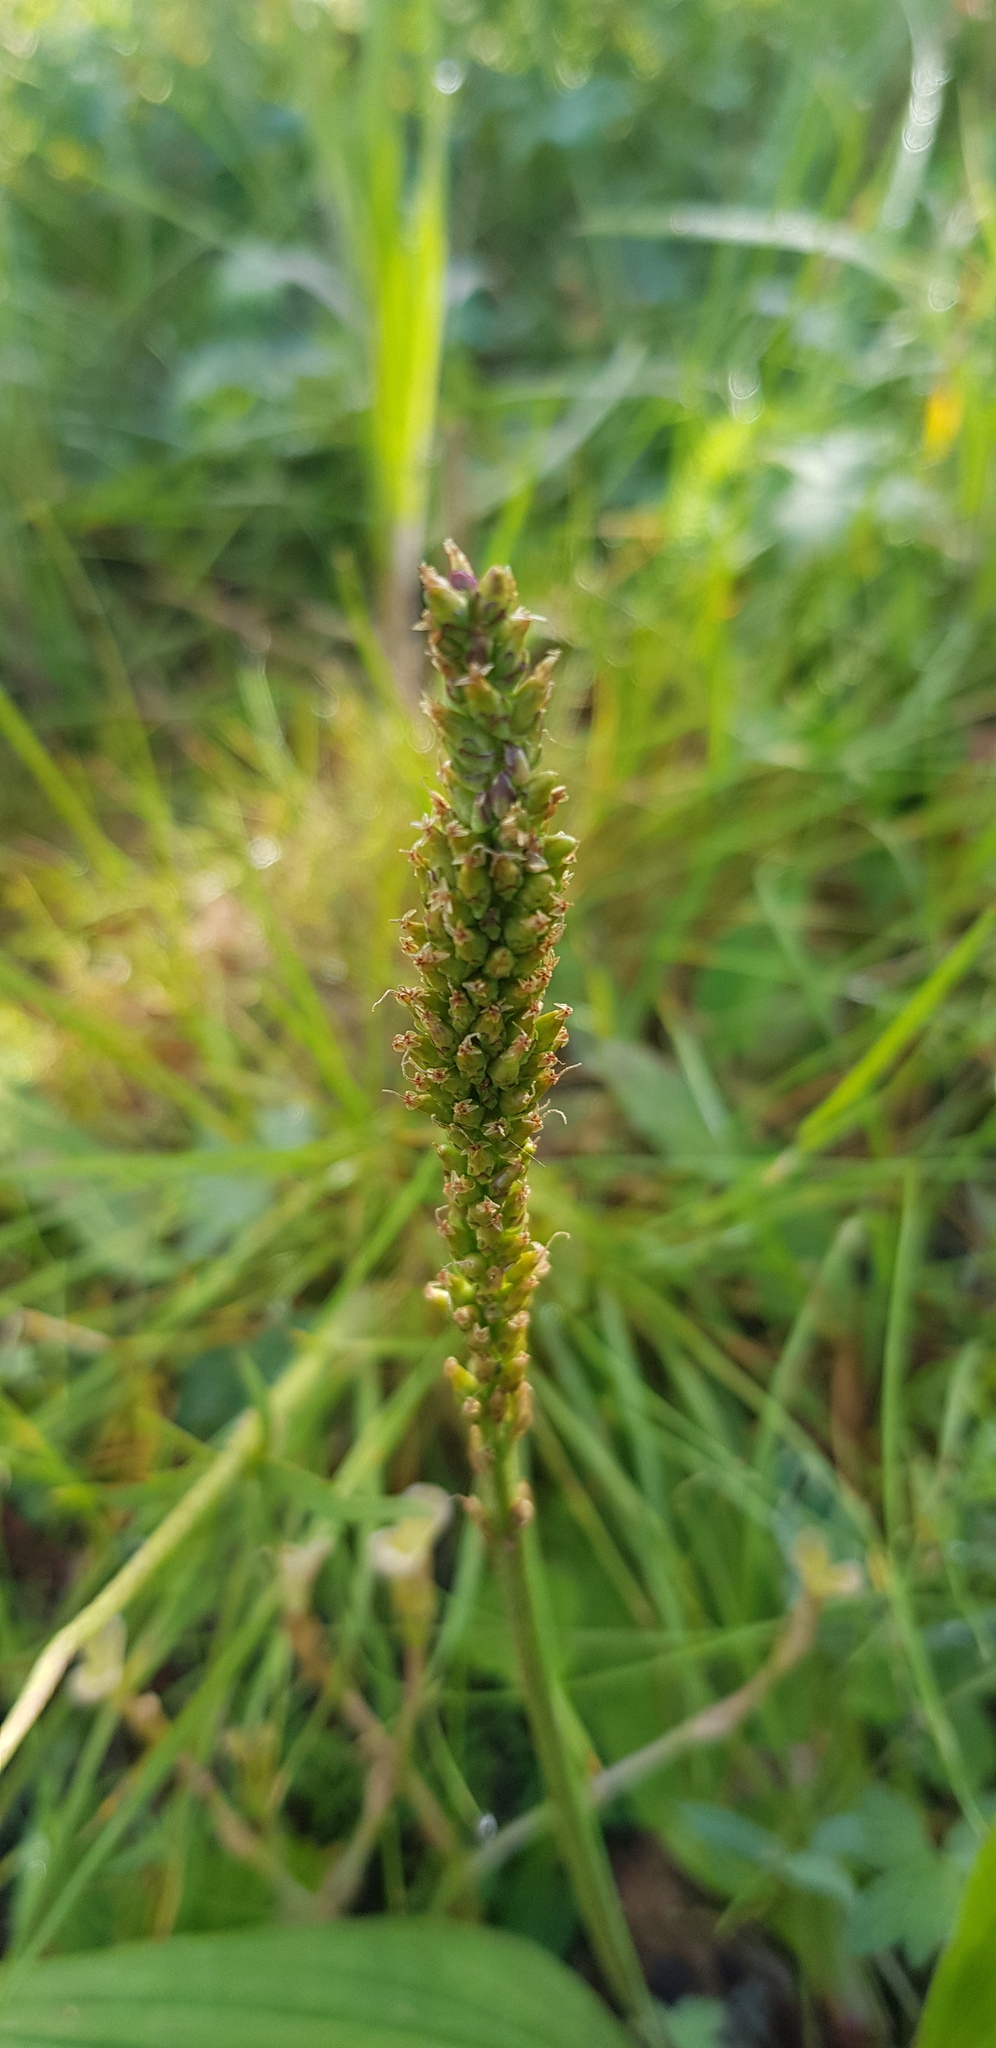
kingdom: Plantae
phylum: Tracheophyta
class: Magnoliopsida
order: Lamiales
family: Plantaginaceae
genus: Plantago
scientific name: Plantago major
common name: Common plantain
